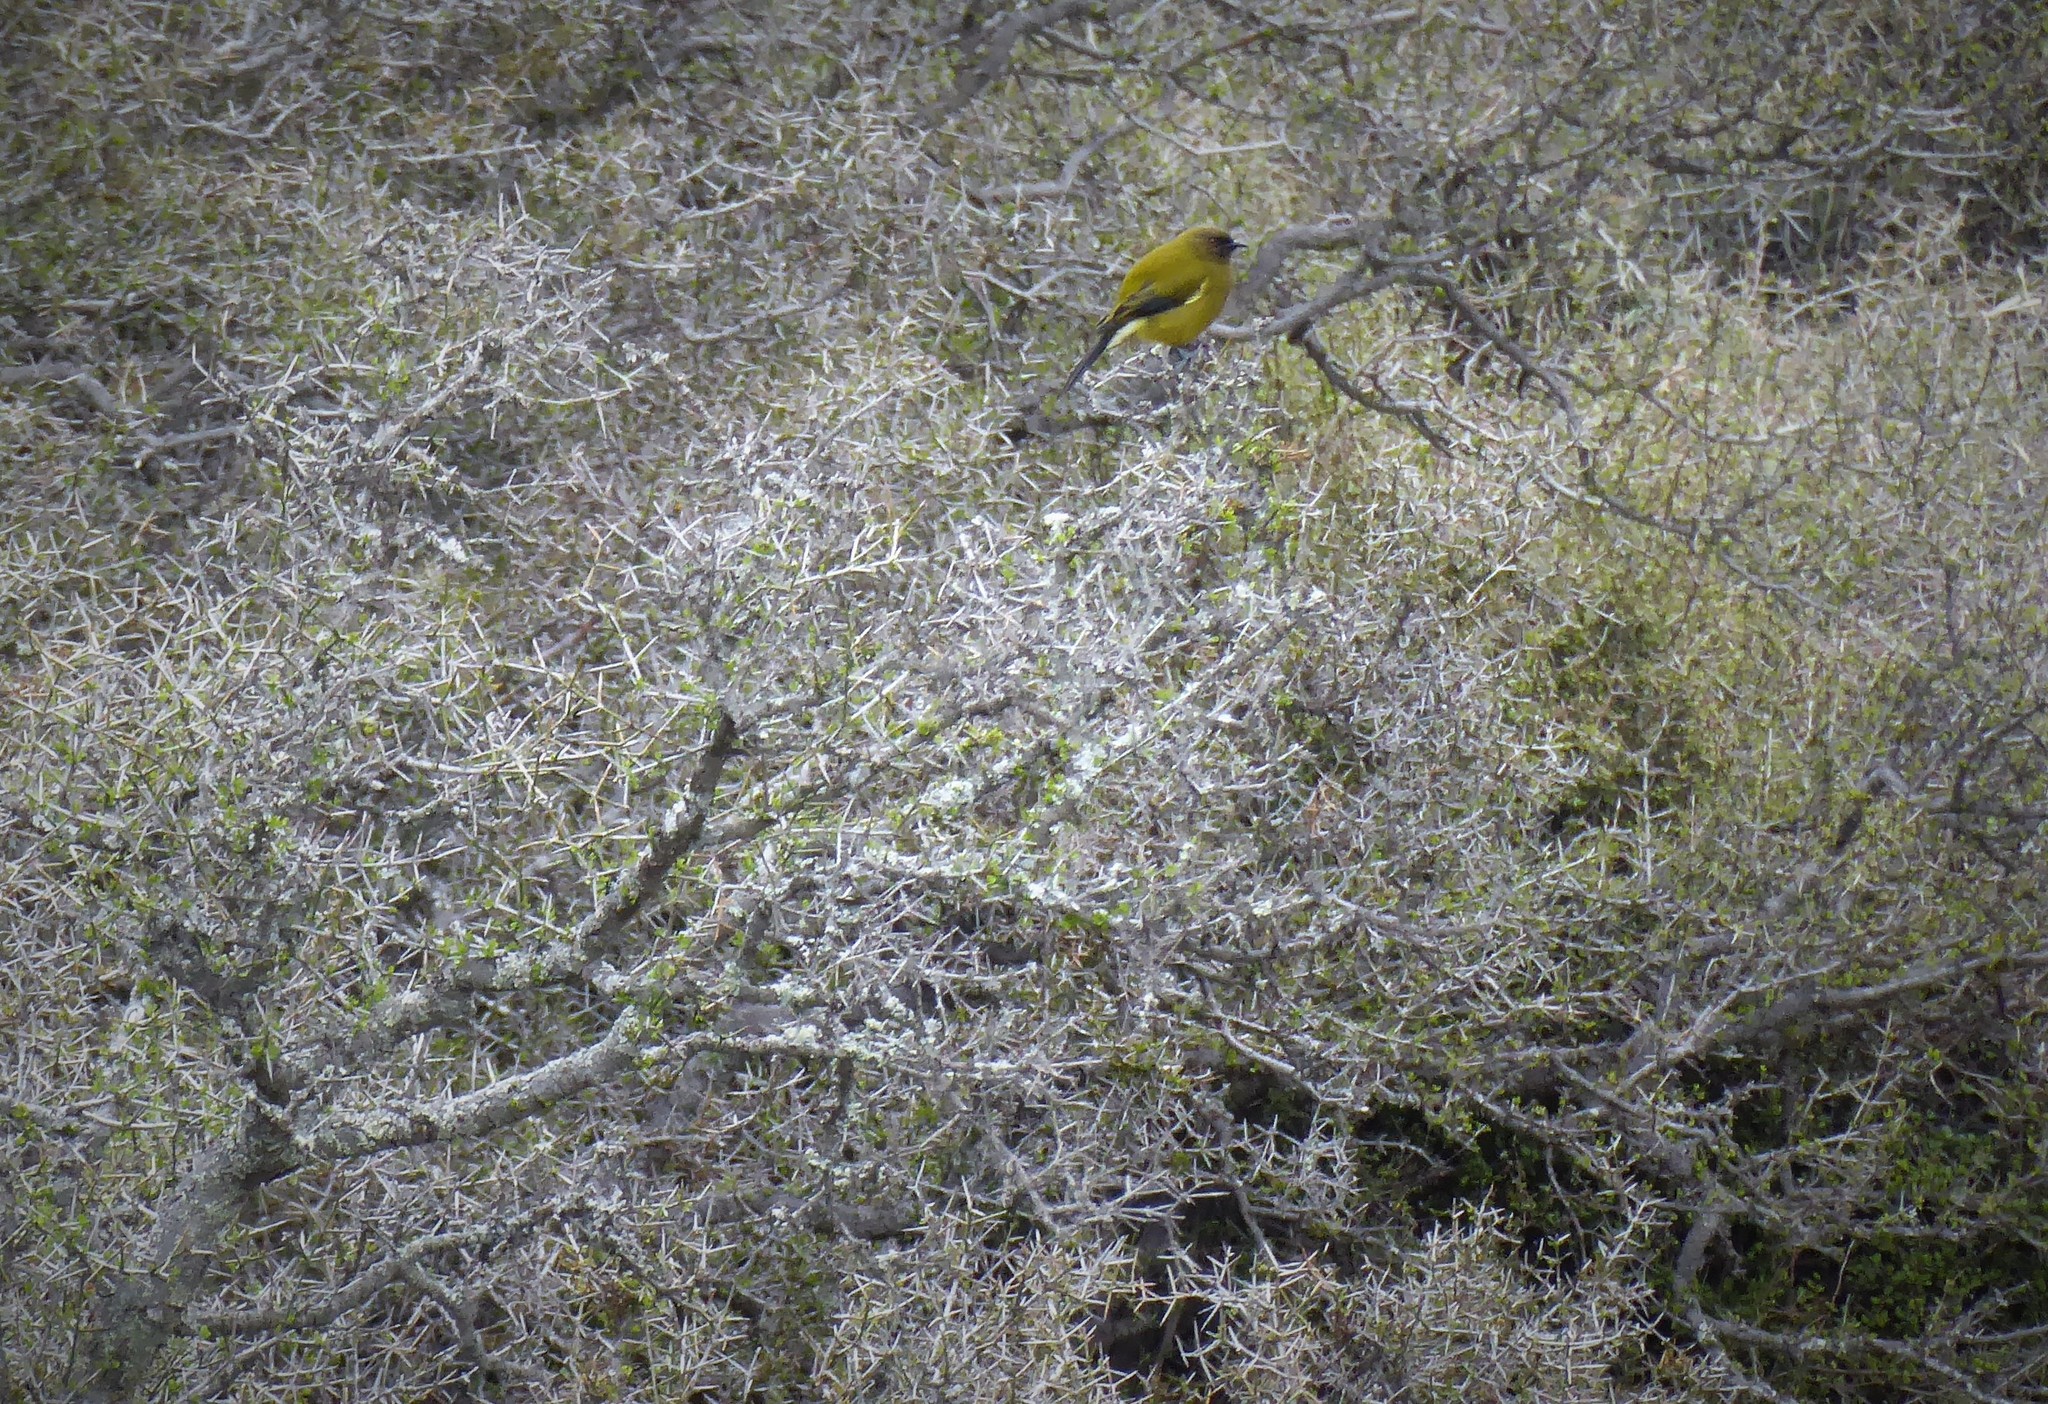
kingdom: Animalia
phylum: Chordata
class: Aves
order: Passeriformes
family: Meliphagidae
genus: Anthornis
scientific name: Anthornis melanura
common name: New zealand bellbird
